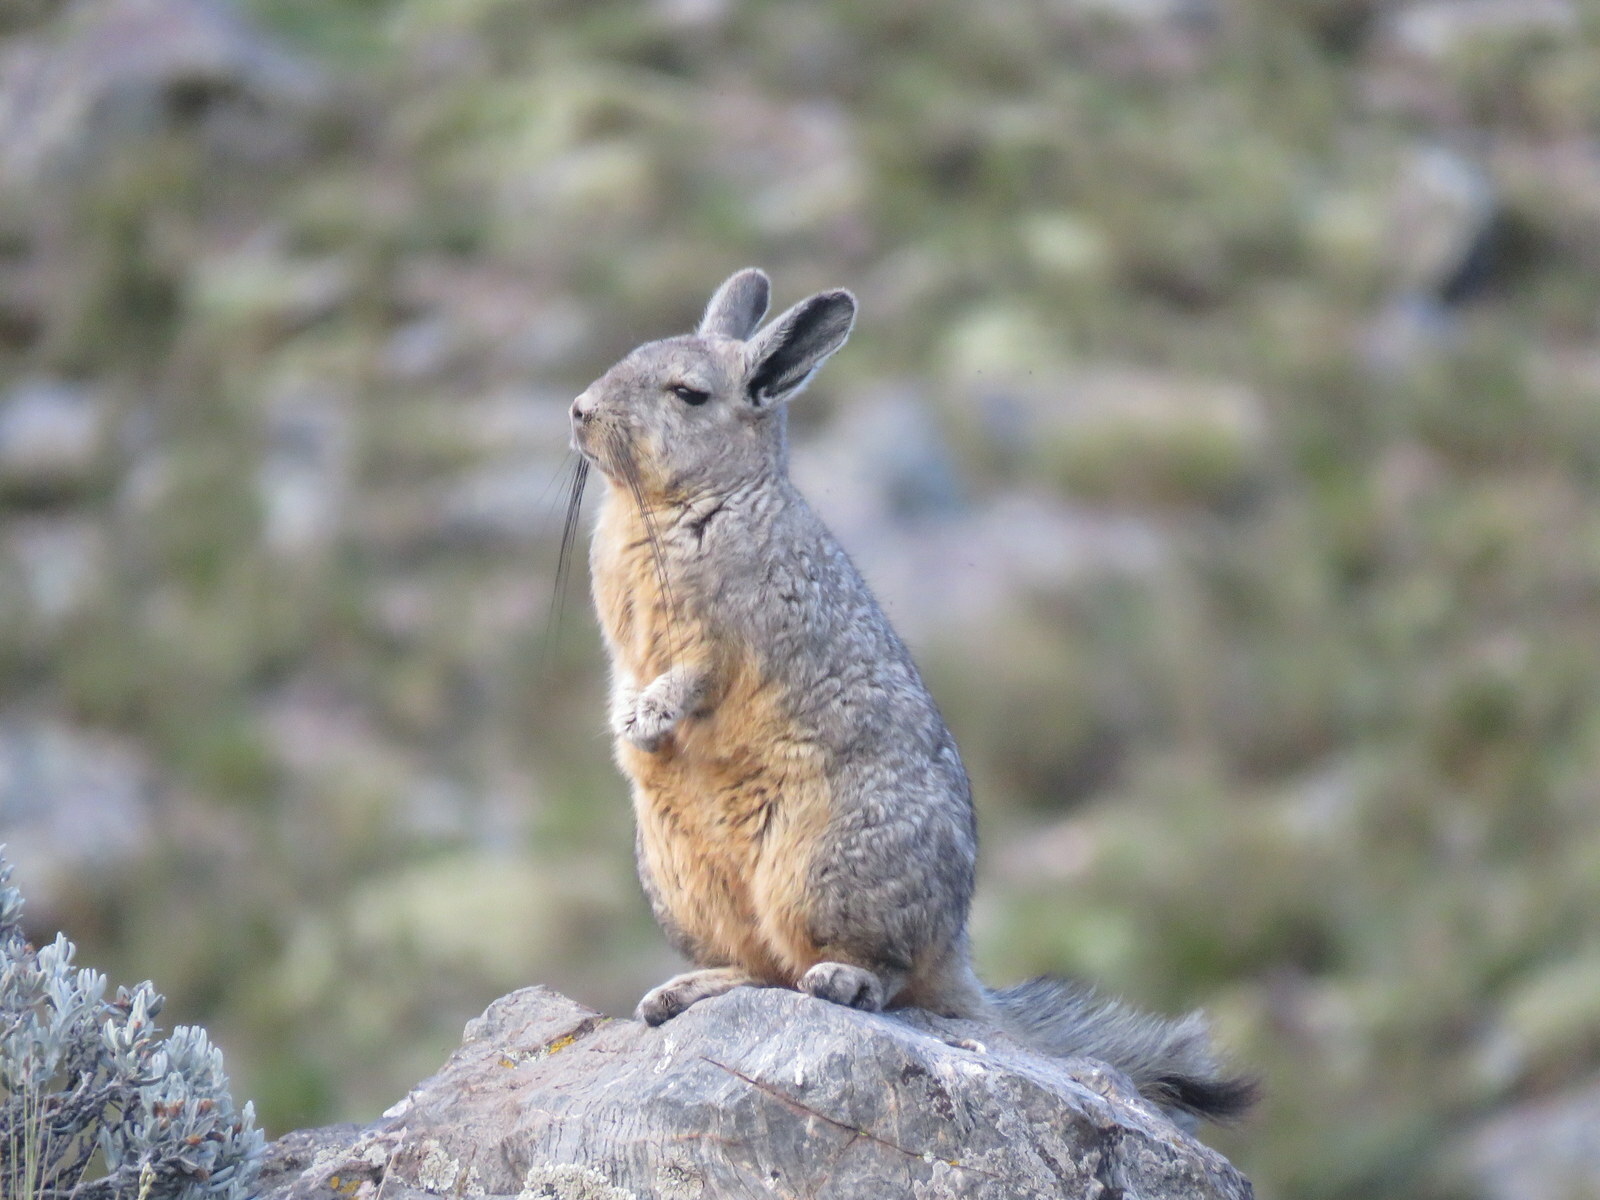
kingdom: Animalia
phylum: Chordata
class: Mammalia
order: Rodentia
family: Chinchillidae
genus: Lagidium
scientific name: Lagidium viscacia
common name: Southern viscacha
